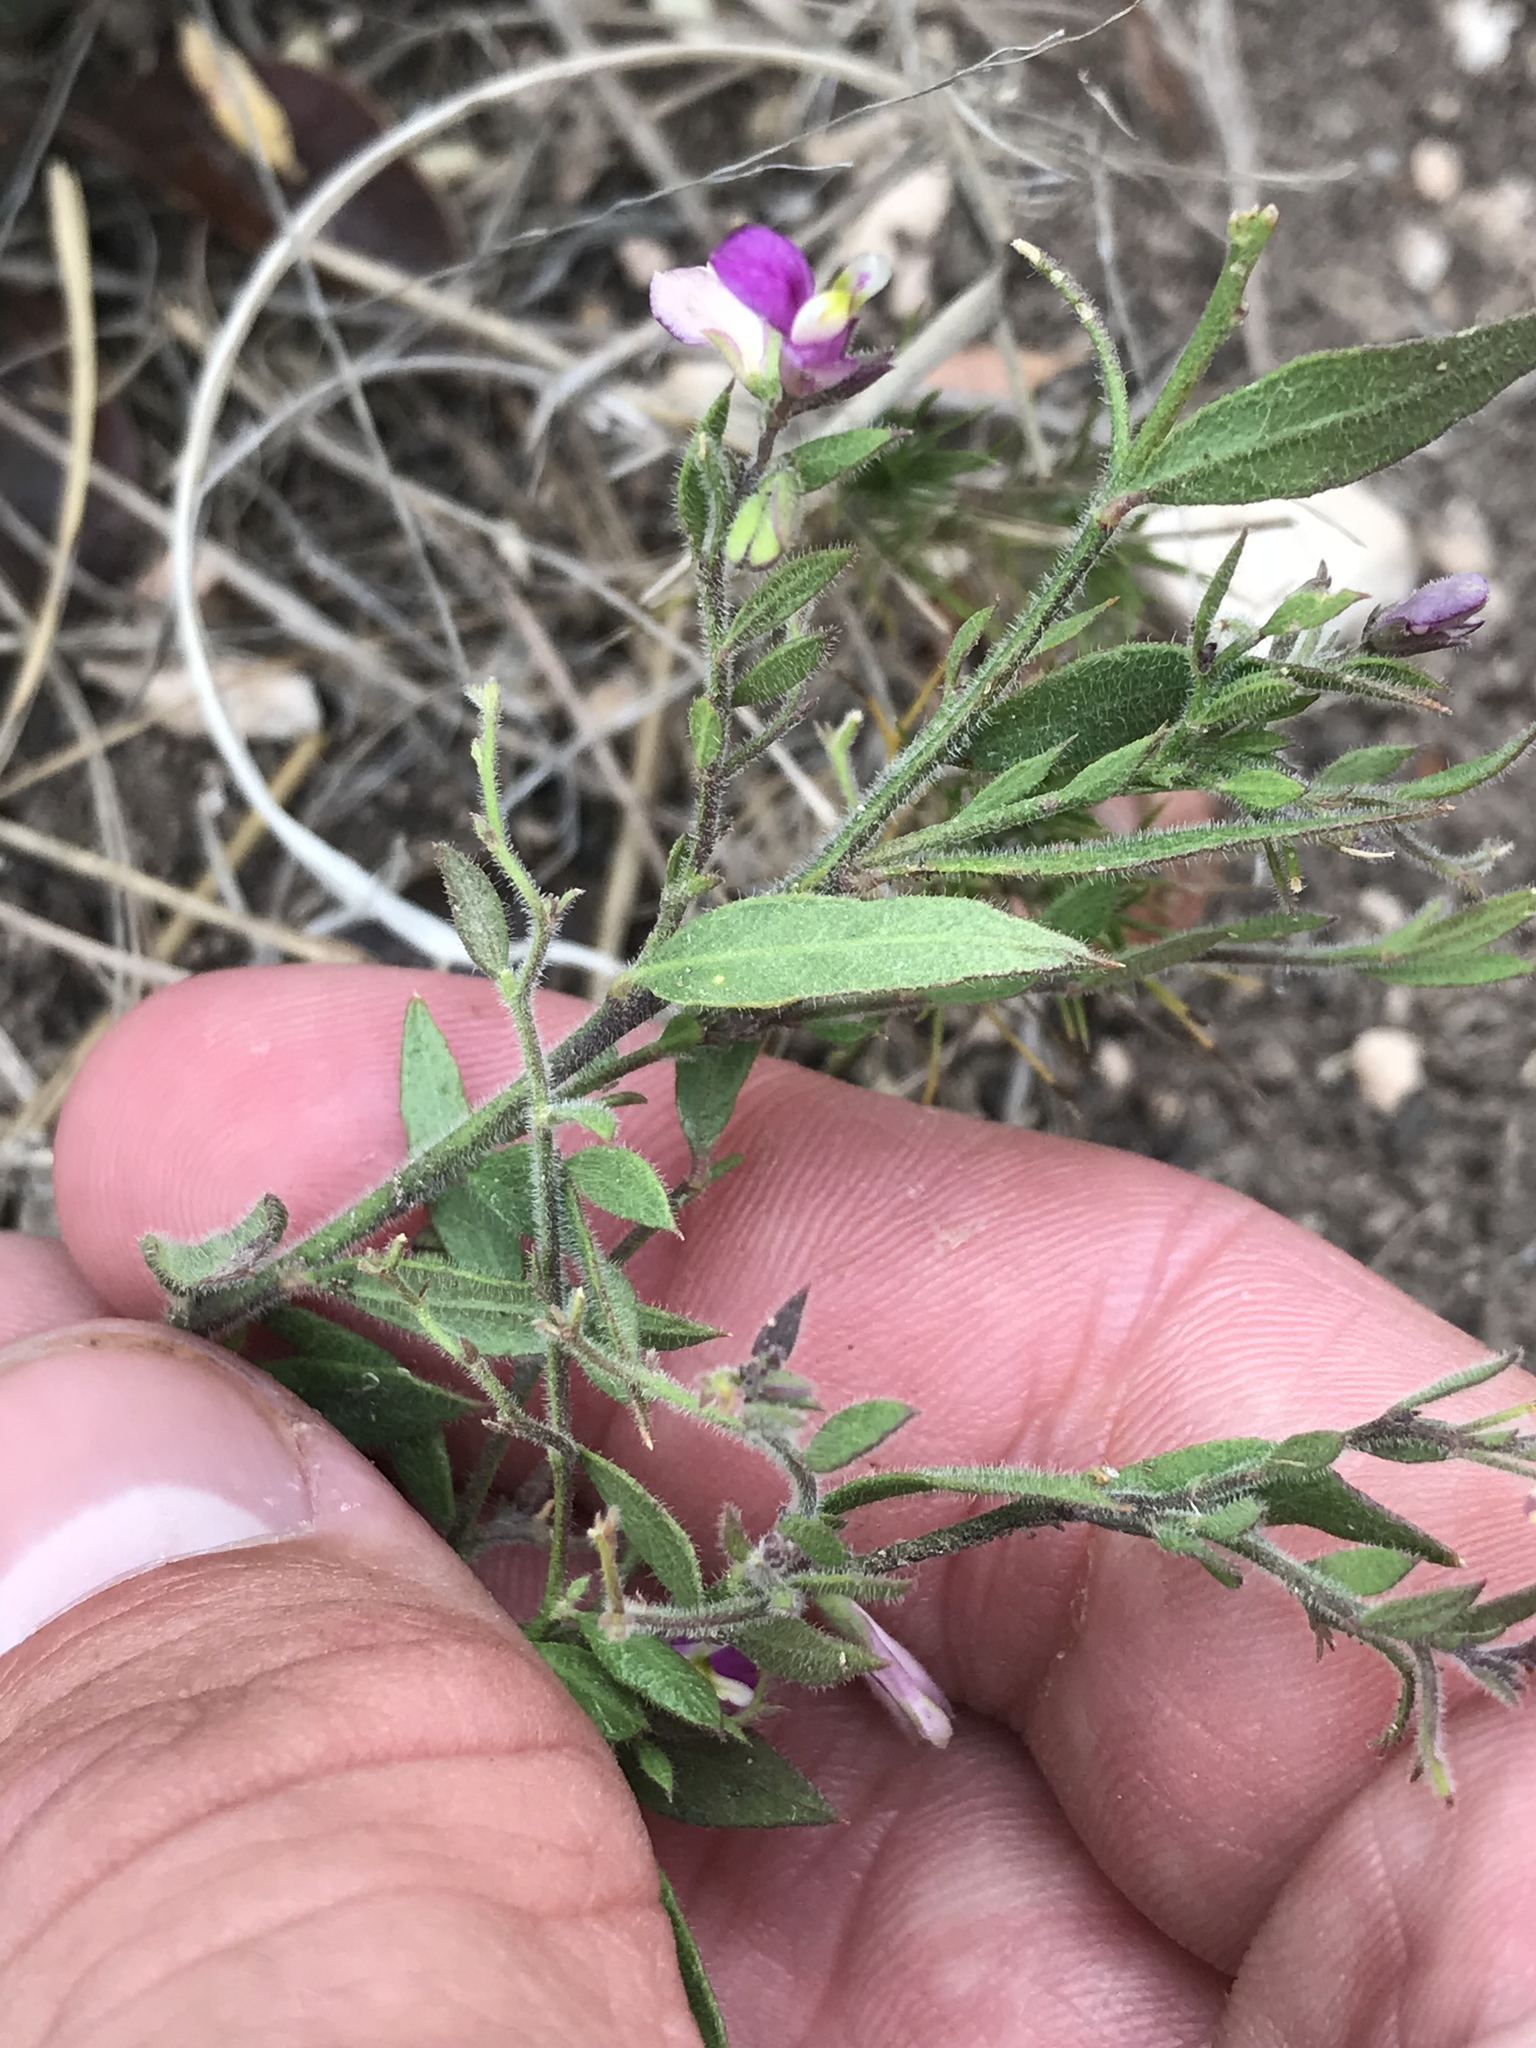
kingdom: Plantae
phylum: Tracheophyta
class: Magnoliopsida
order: Fabales
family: Polygalaceae
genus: Rhinotropis
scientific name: Rhinotropis lindheimeri
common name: Shrubby milkwort
